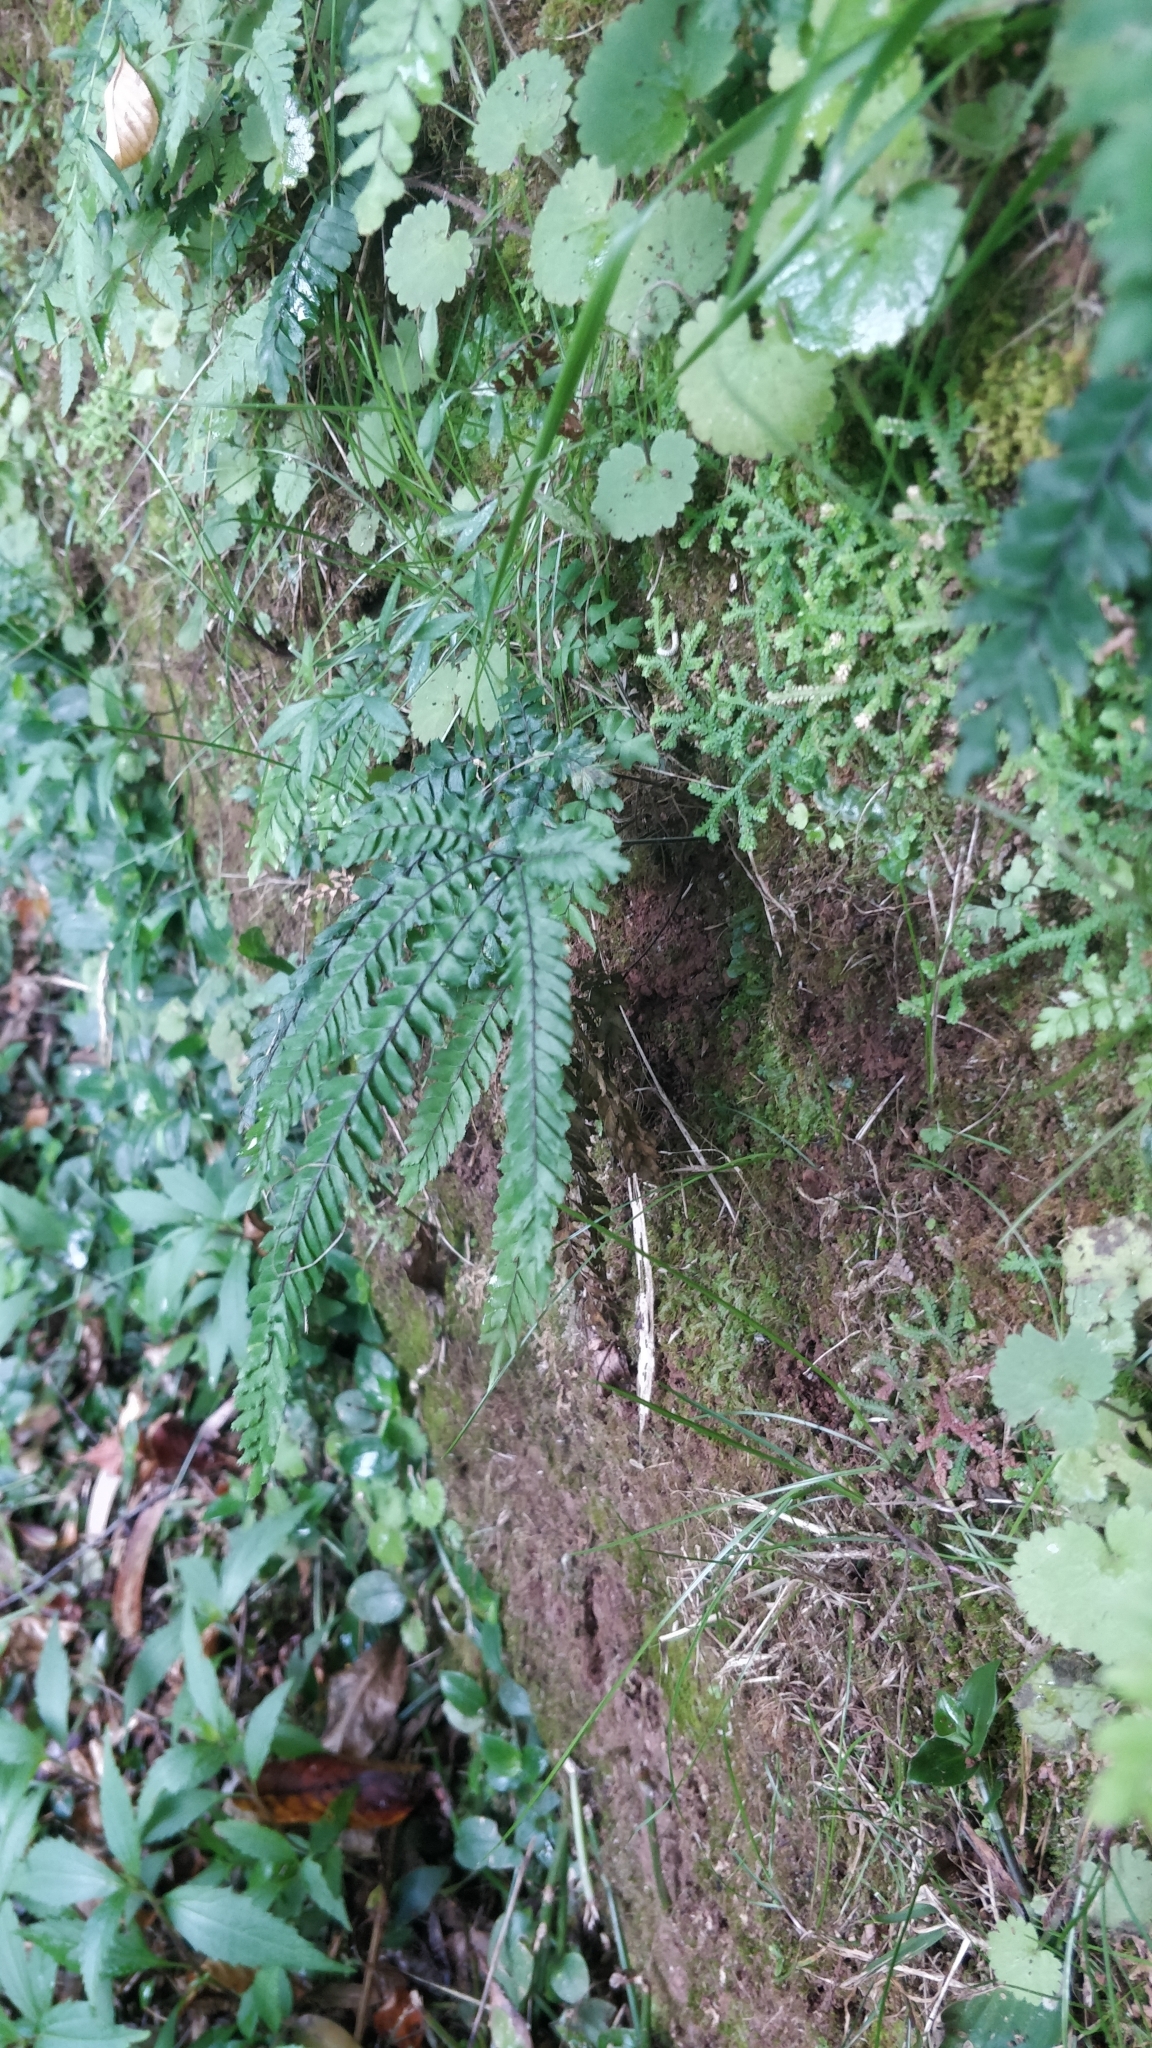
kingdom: Plantae
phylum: Tracheophyta
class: Polypodiopsida
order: Polypodiales
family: Pteridaceae
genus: Adiantum
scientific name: Adiantum hispidulum
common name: Rough maidenhair
